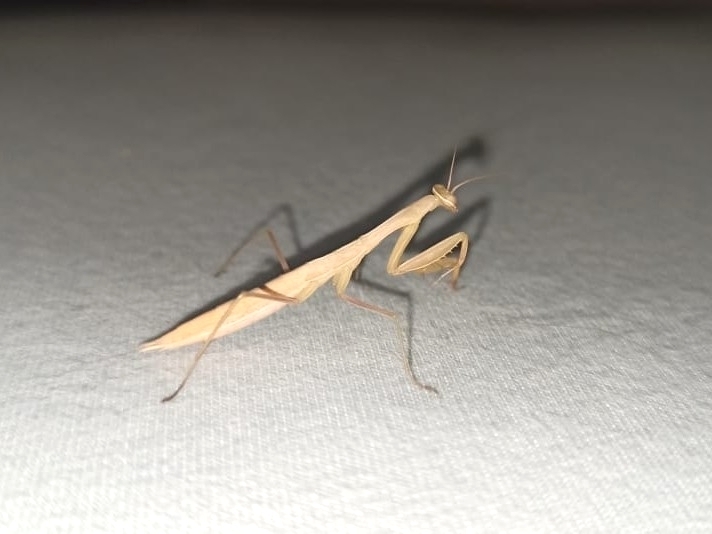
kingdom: Animalia
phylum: Arthropoda
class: Insecta
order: Mantodea
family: Mantidae
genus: Mantis
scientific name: Mantis religiosa
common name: Praying mantis
